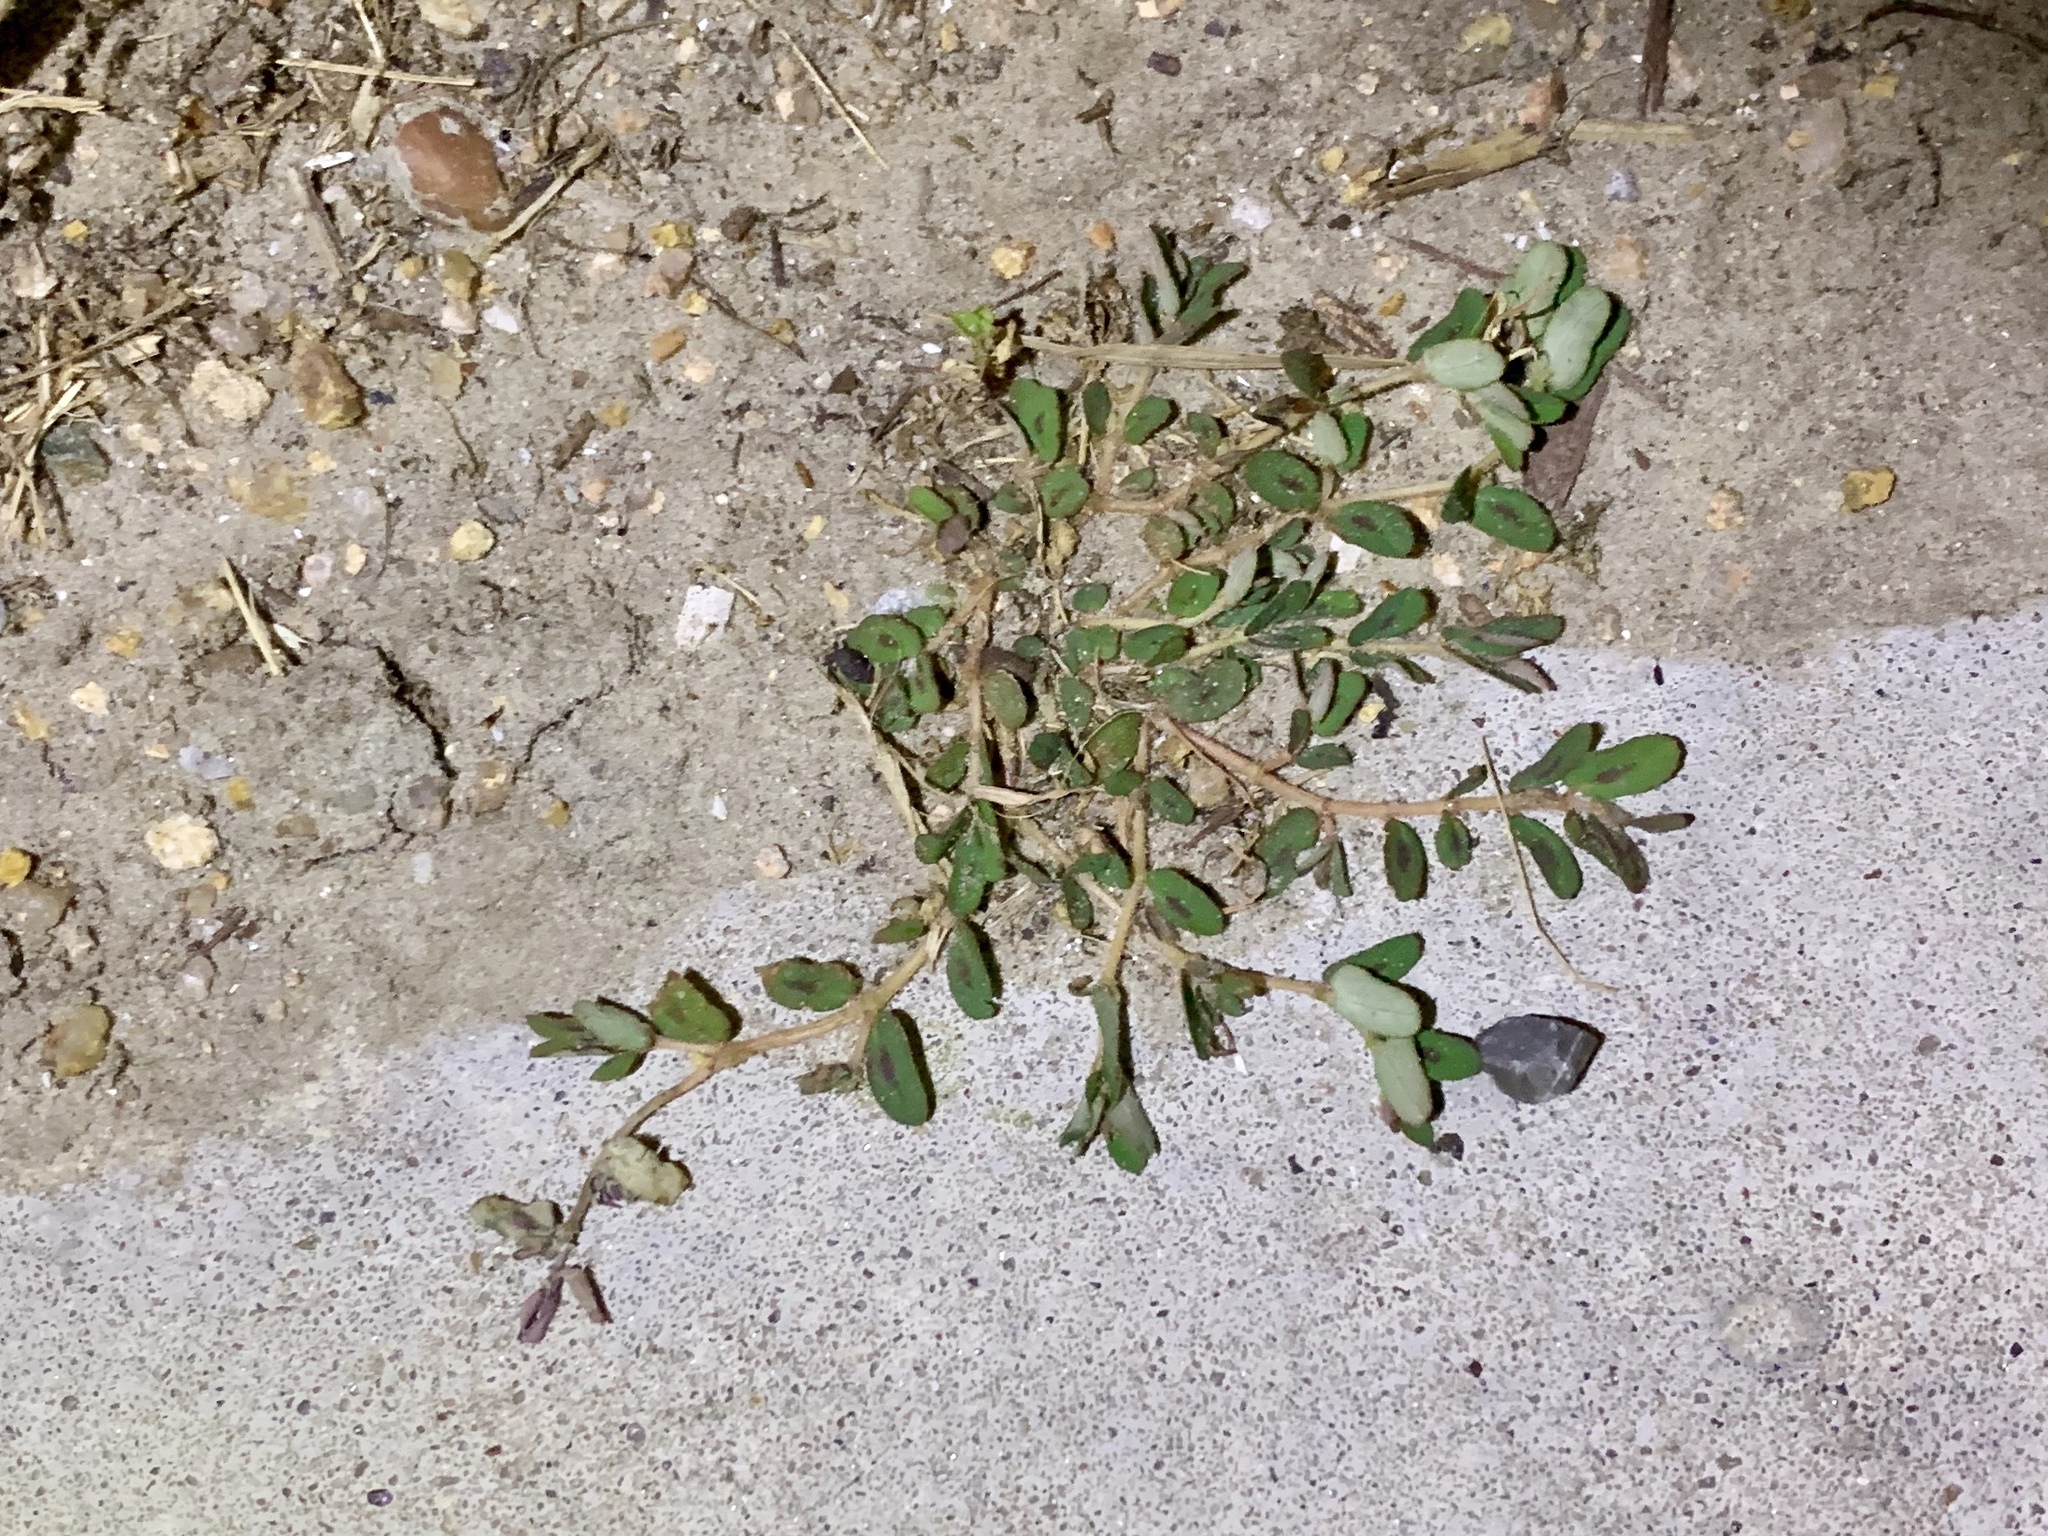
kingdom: Plantae
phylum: Tracheophyta
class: Magnoliopsida
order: Malpighiales
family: Euphorbiaceae
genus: Euphorbia
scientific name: Euphorbia maculata
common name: Spotted spurge
